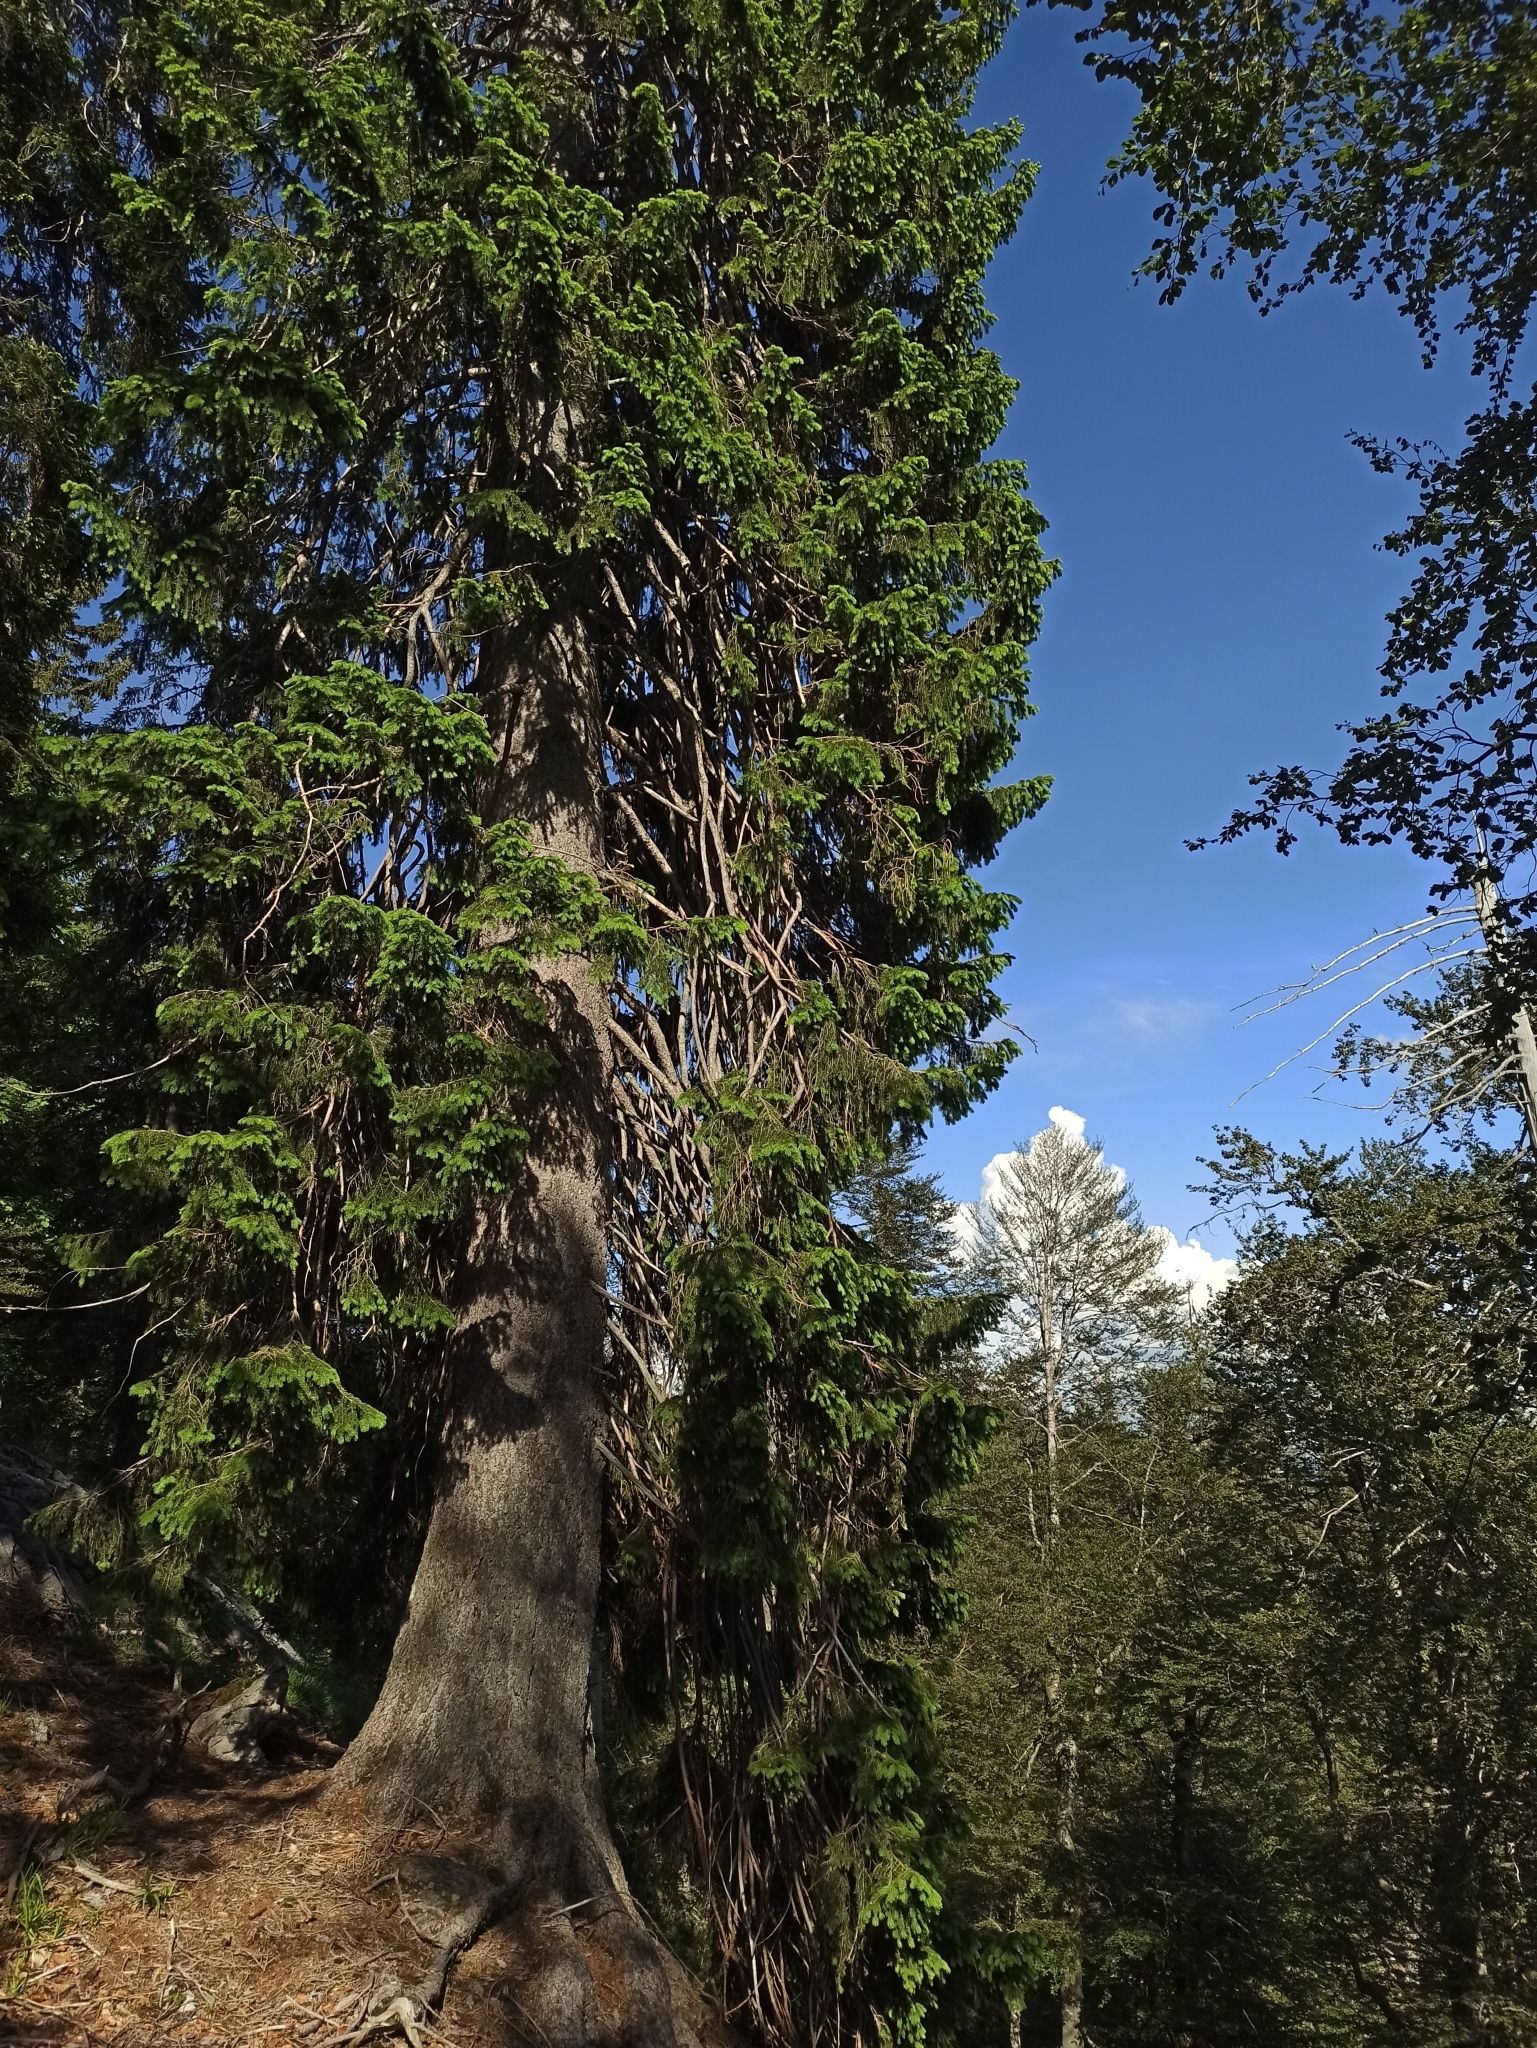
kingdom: Plantae
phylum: Tracheophyta
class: Pinopsida
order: Pinales
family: Pinaceae
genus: Picea
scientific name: Picea abies
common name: Norway spruce
